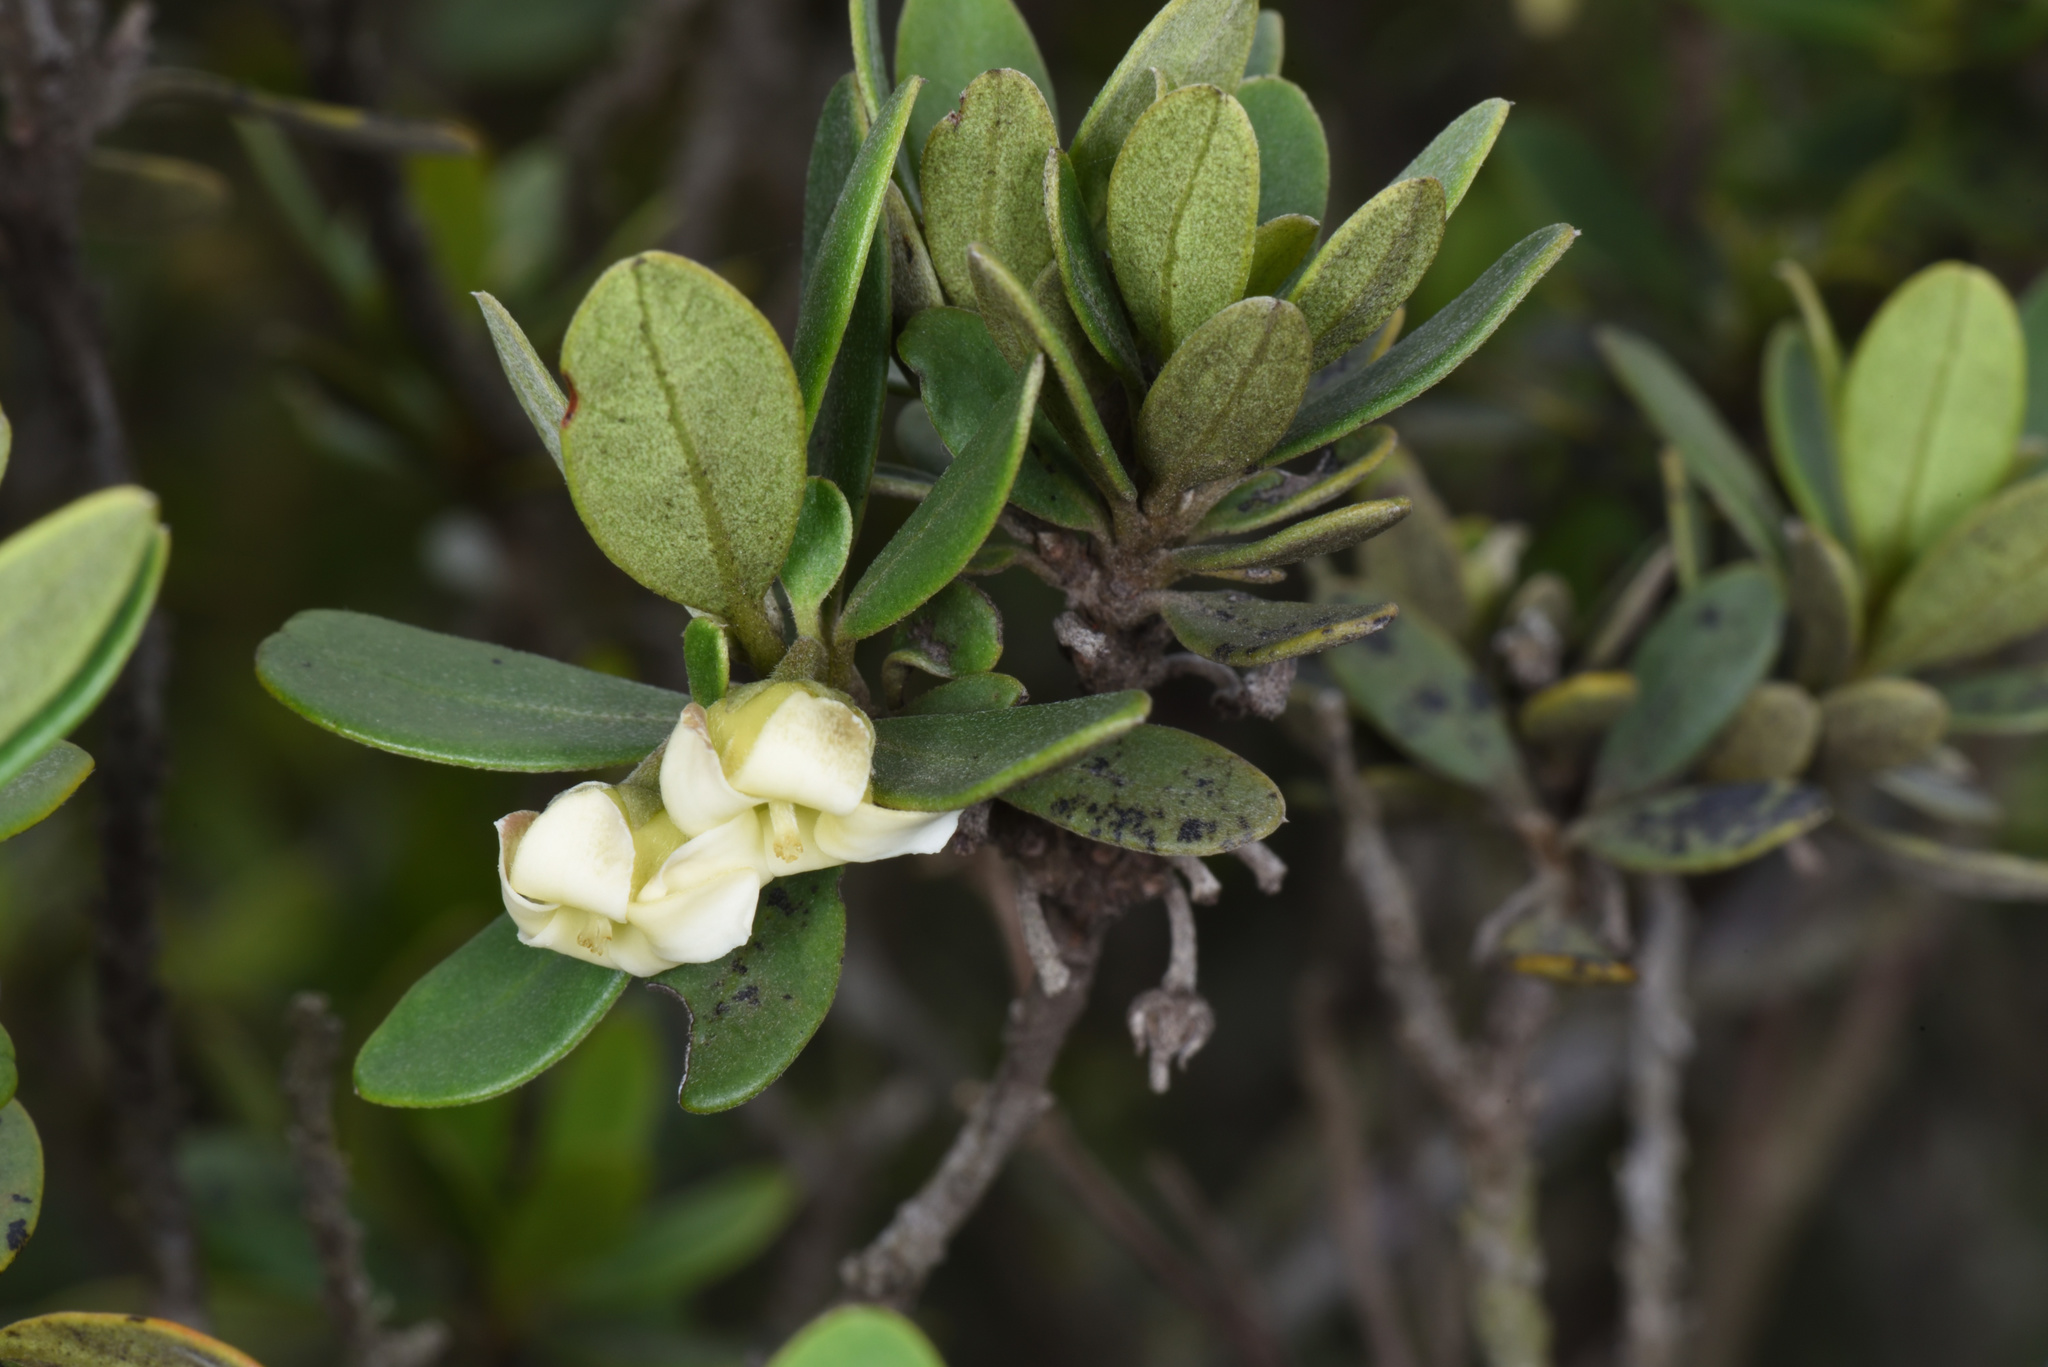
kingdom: Plantae
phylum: Tracheophyta
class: Magnoliopsida
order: Ericales
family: Ebenaceae
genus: Diospyros
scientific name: Diospyros dichrophylla
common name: Common star-apple
